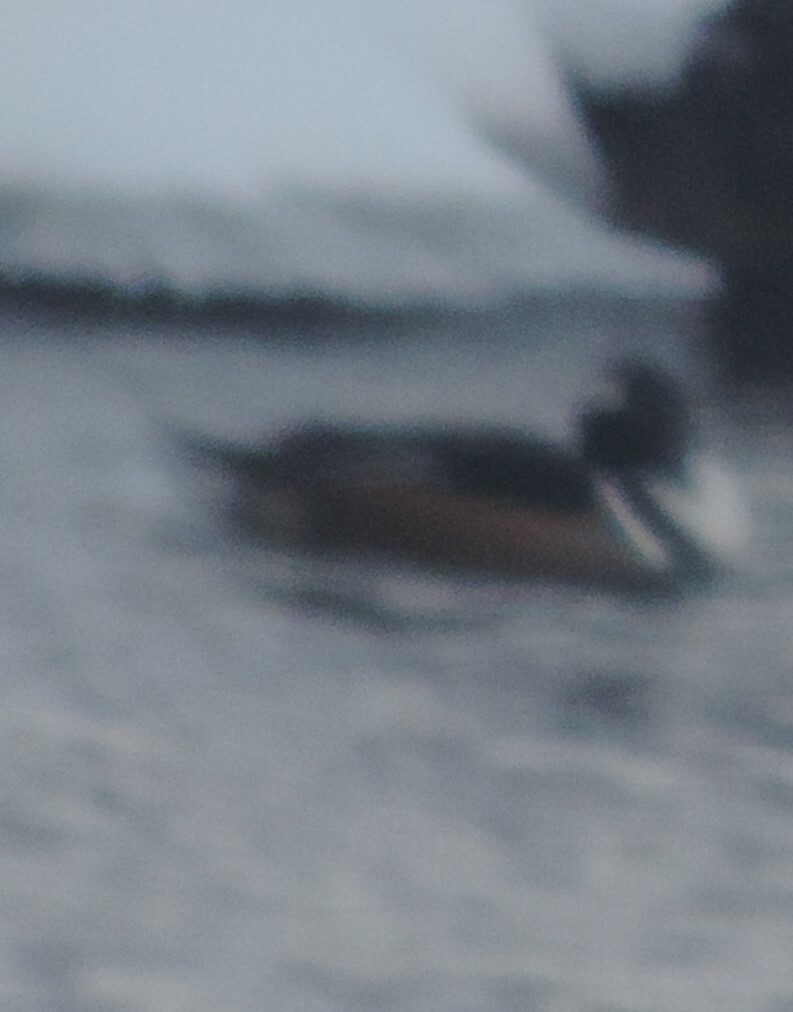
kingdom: Animalia
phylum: Chordata
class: Aves
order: Anseriformes
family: Anatidae
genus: Lophodytes
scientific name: Lophodytes cucullatus
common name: Hooded merganser
